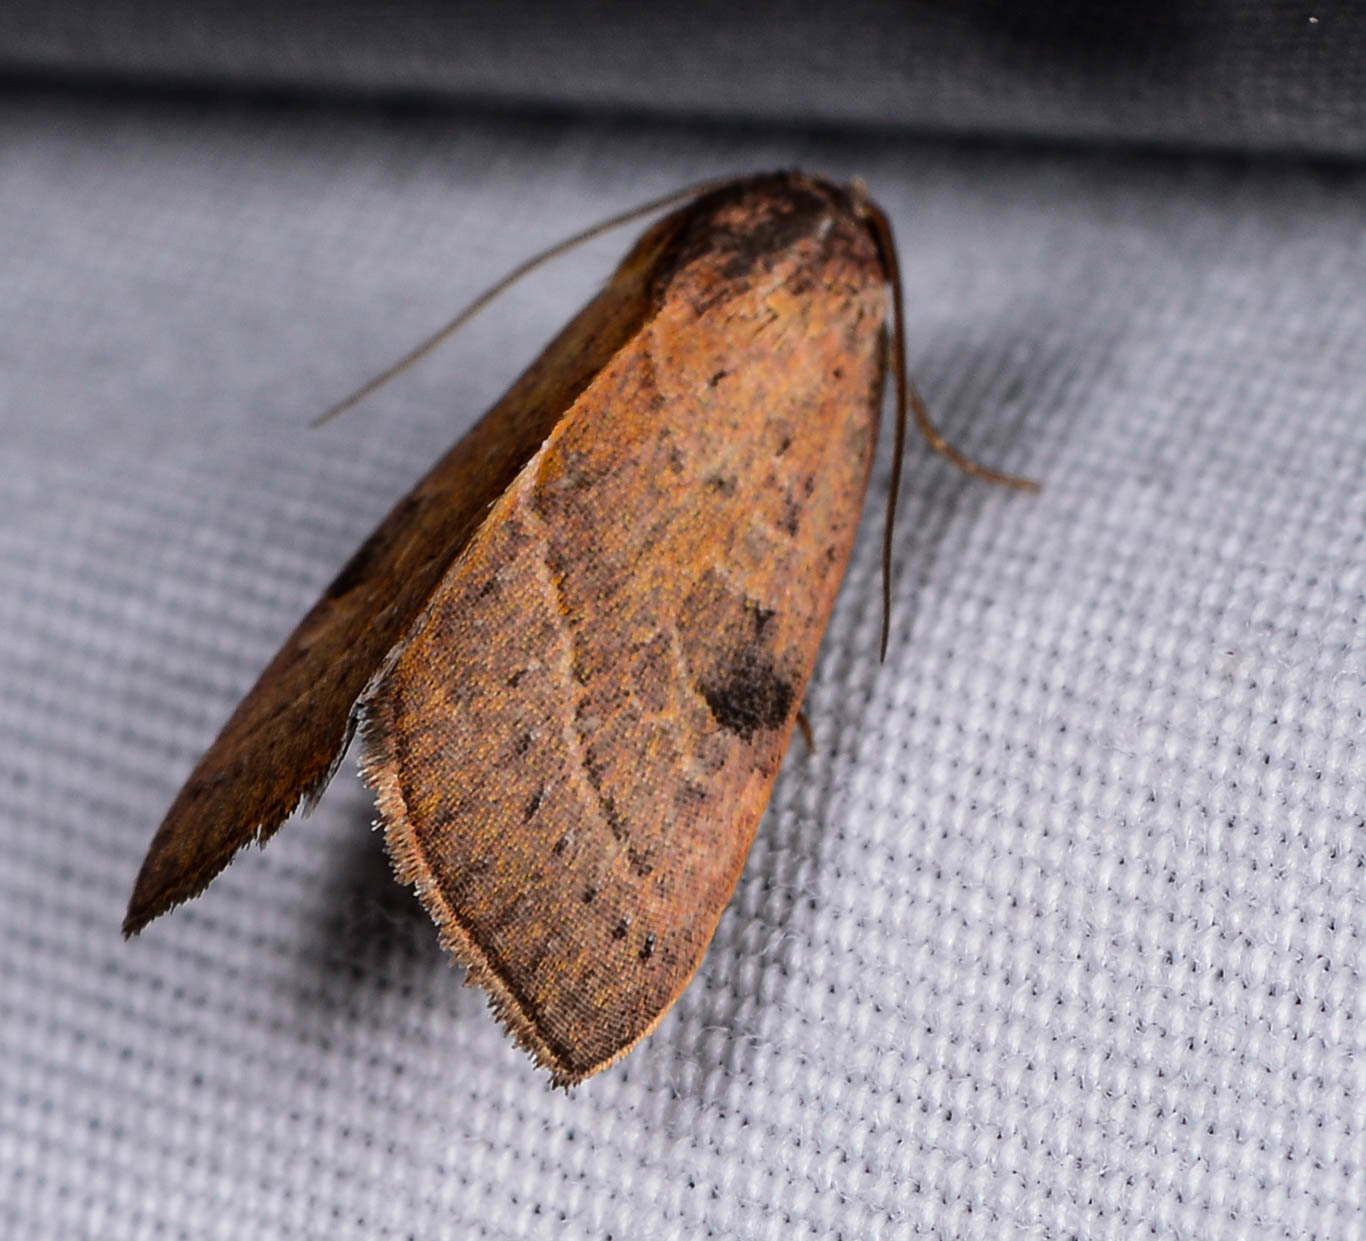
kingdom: Animalia
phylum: Arthropoda
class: Insecta
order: Lepidoptera
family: Noctuidae
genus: Galgula
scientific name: Galgula partita
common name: Wedgeling
